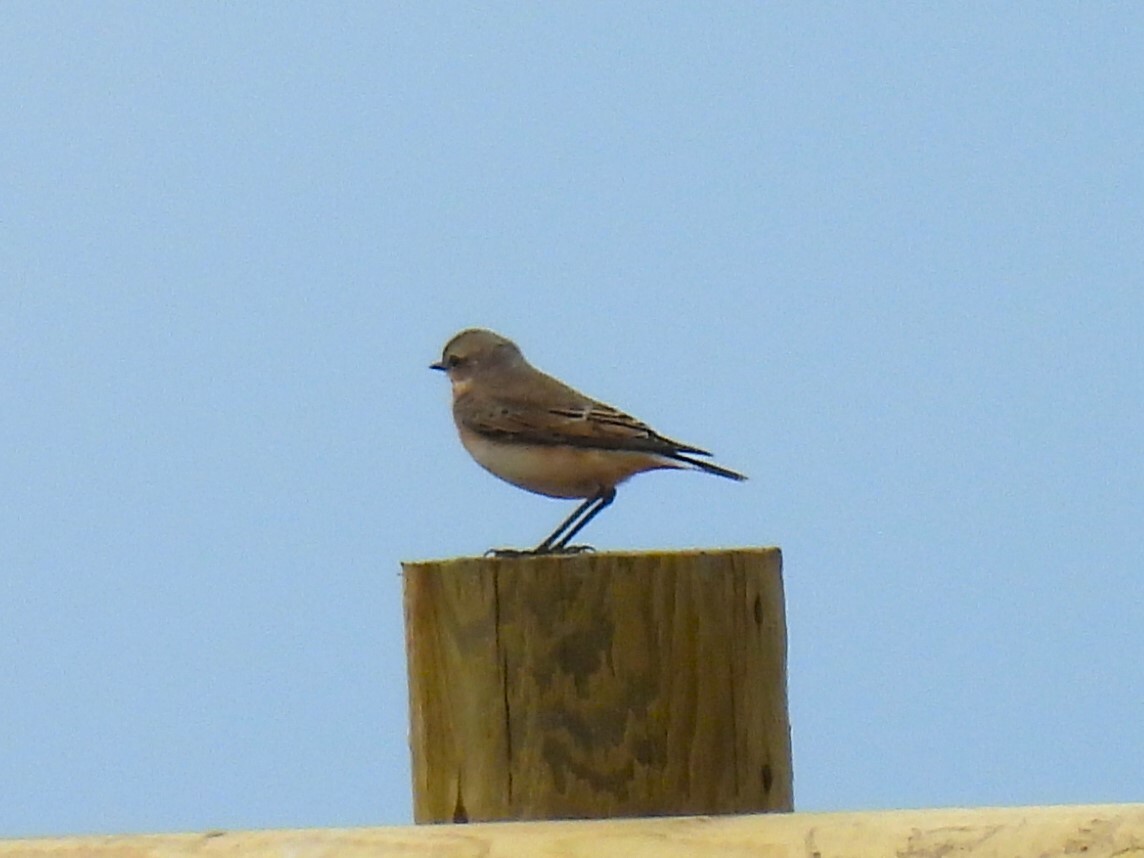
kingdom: Animalia
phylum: Chordata
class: Aves
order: Passeriformes
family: Muscicapidae
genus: Oenanthe
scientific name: Oenanthe oenanthe
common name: Northern wheatear
